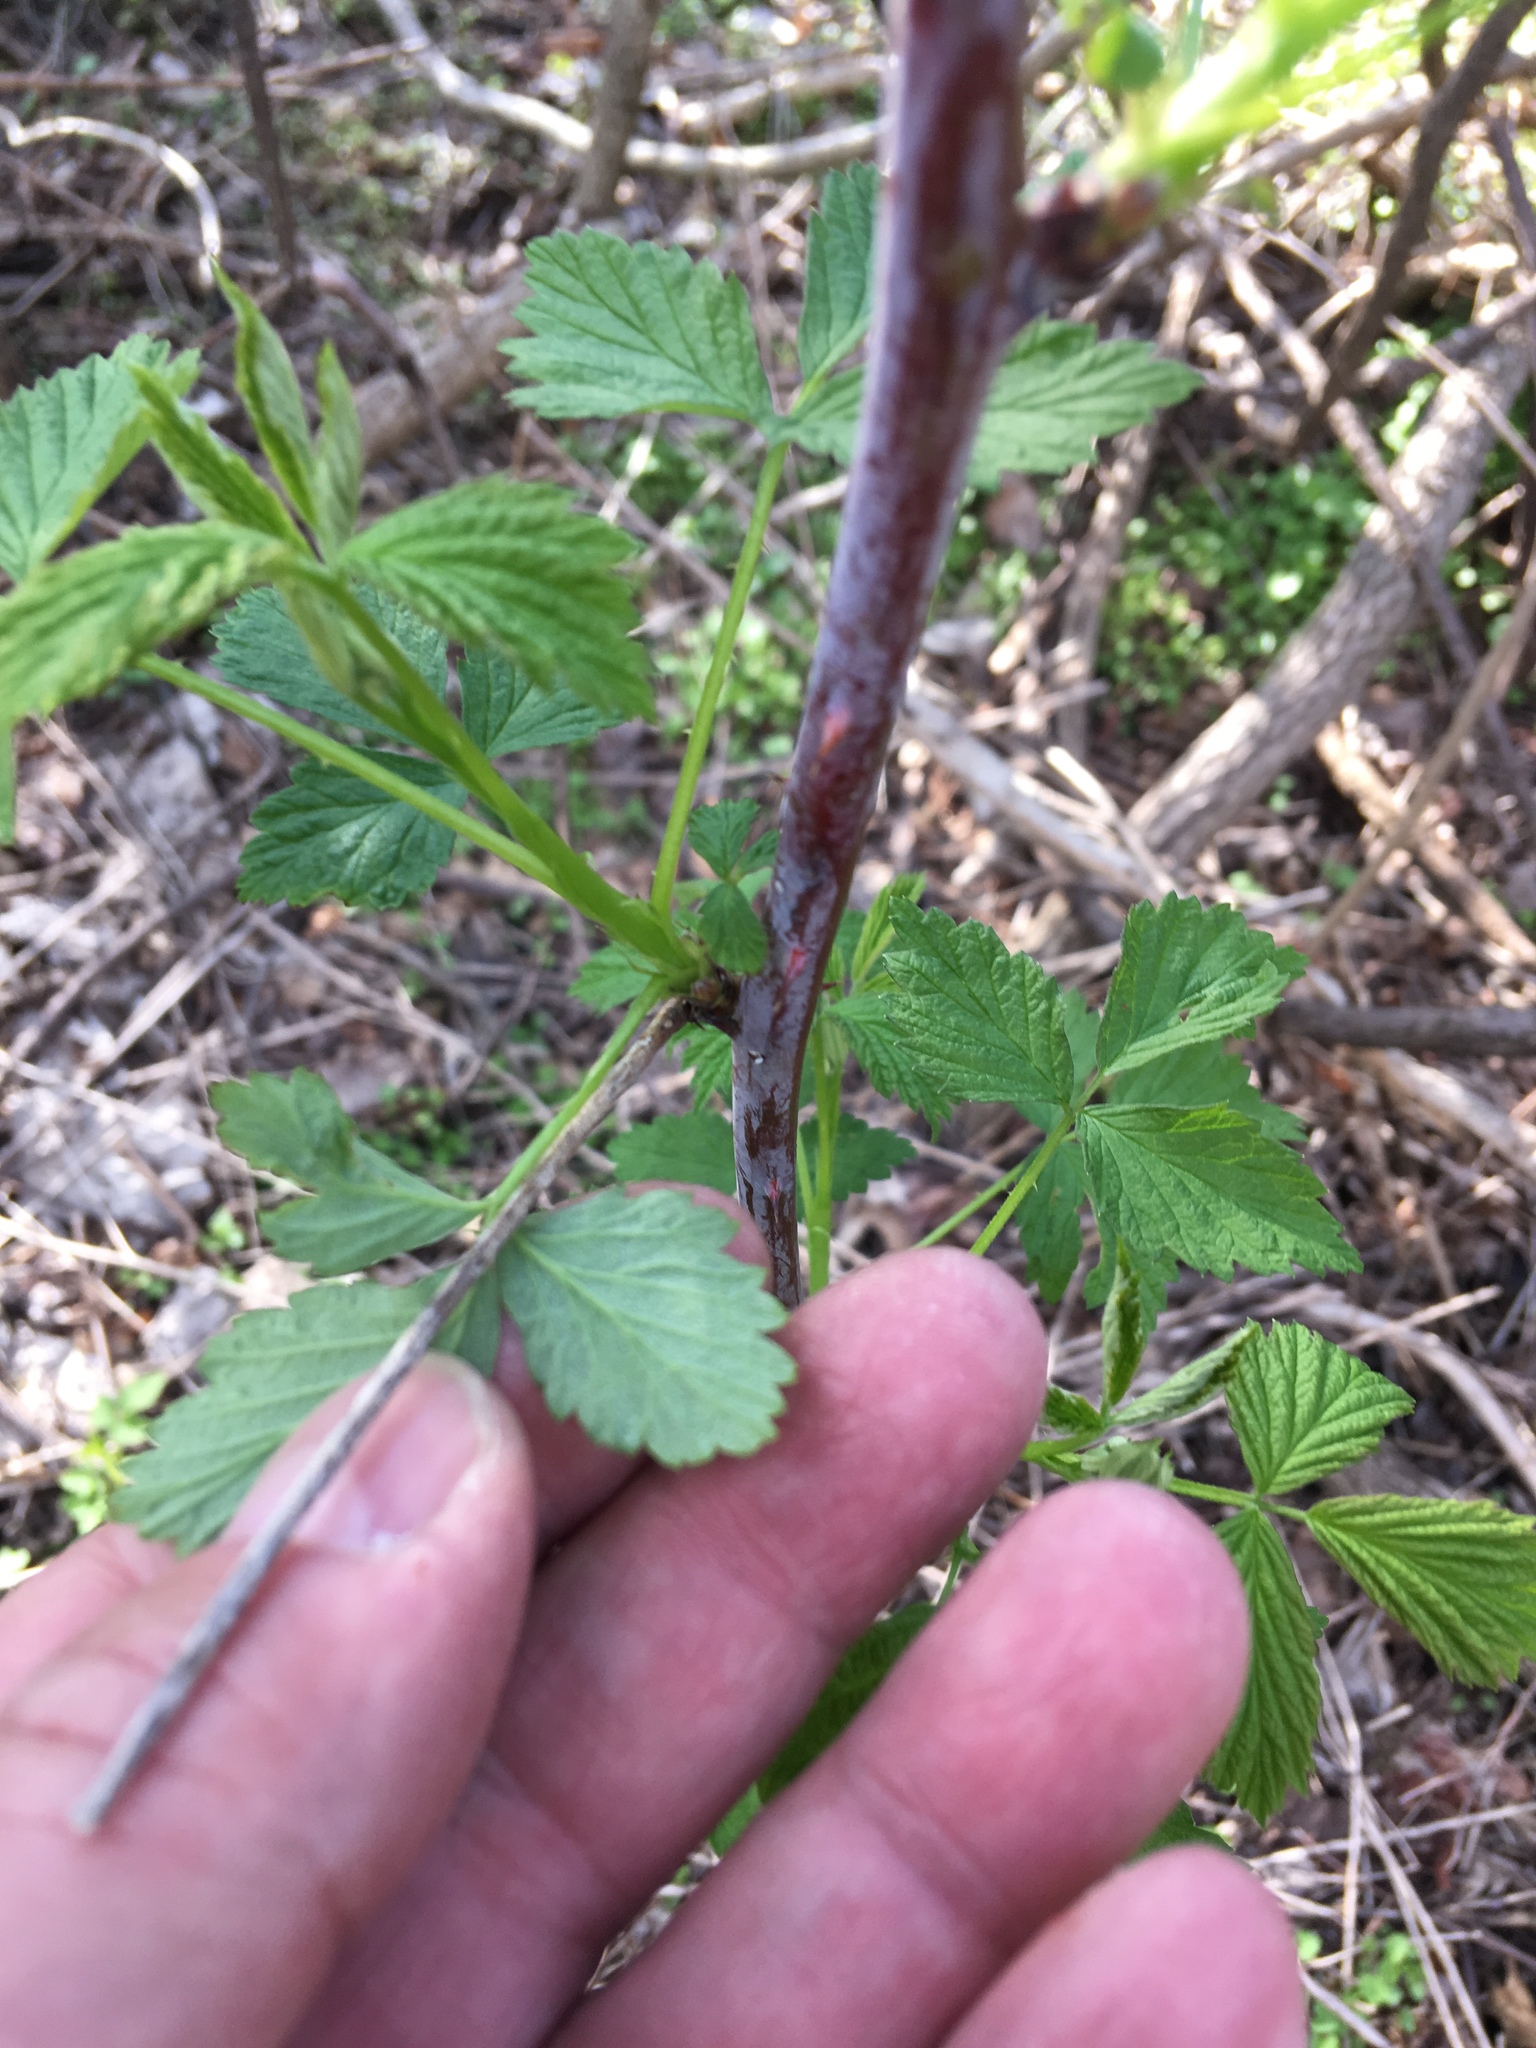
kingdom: Plantae
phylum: Tracheophyta
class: Magnoliopsida
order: Rosales
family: Rosaceae
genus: Rubus
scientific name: Rubus occidentalis
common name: Black raspberry
